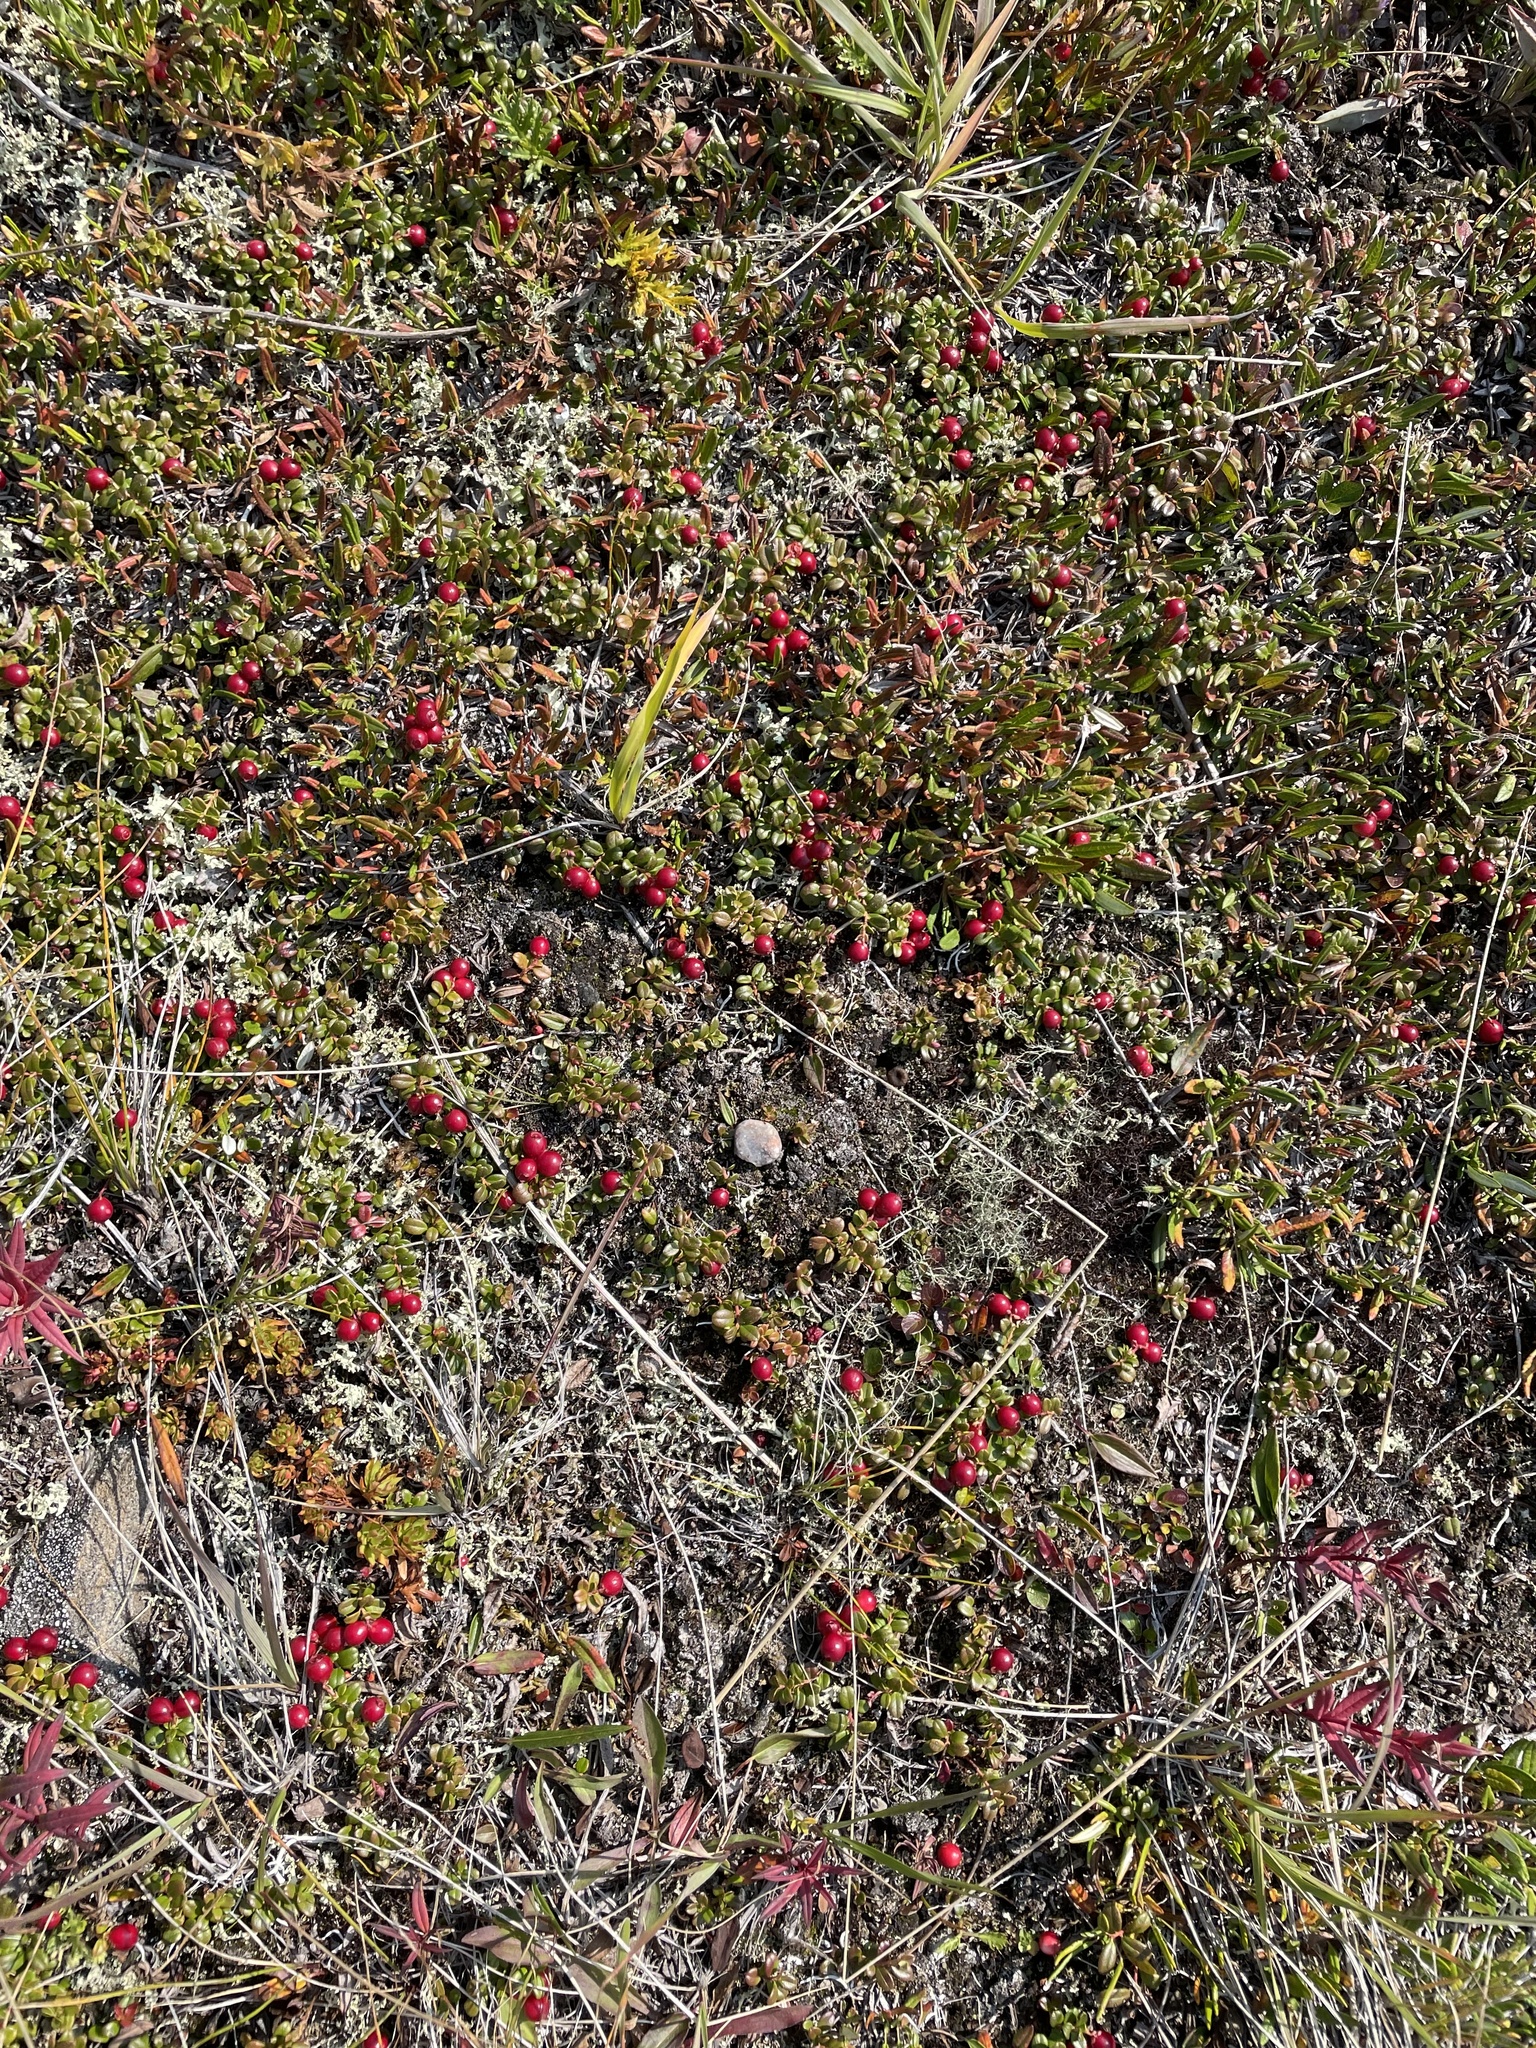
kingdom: Plantae
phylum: Tracheophyta
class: Magnoliopsida
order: Ericales
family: Ericaceae
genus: Vaccinium
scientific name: Vaccinium vitis-idaea
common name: Cowberry
